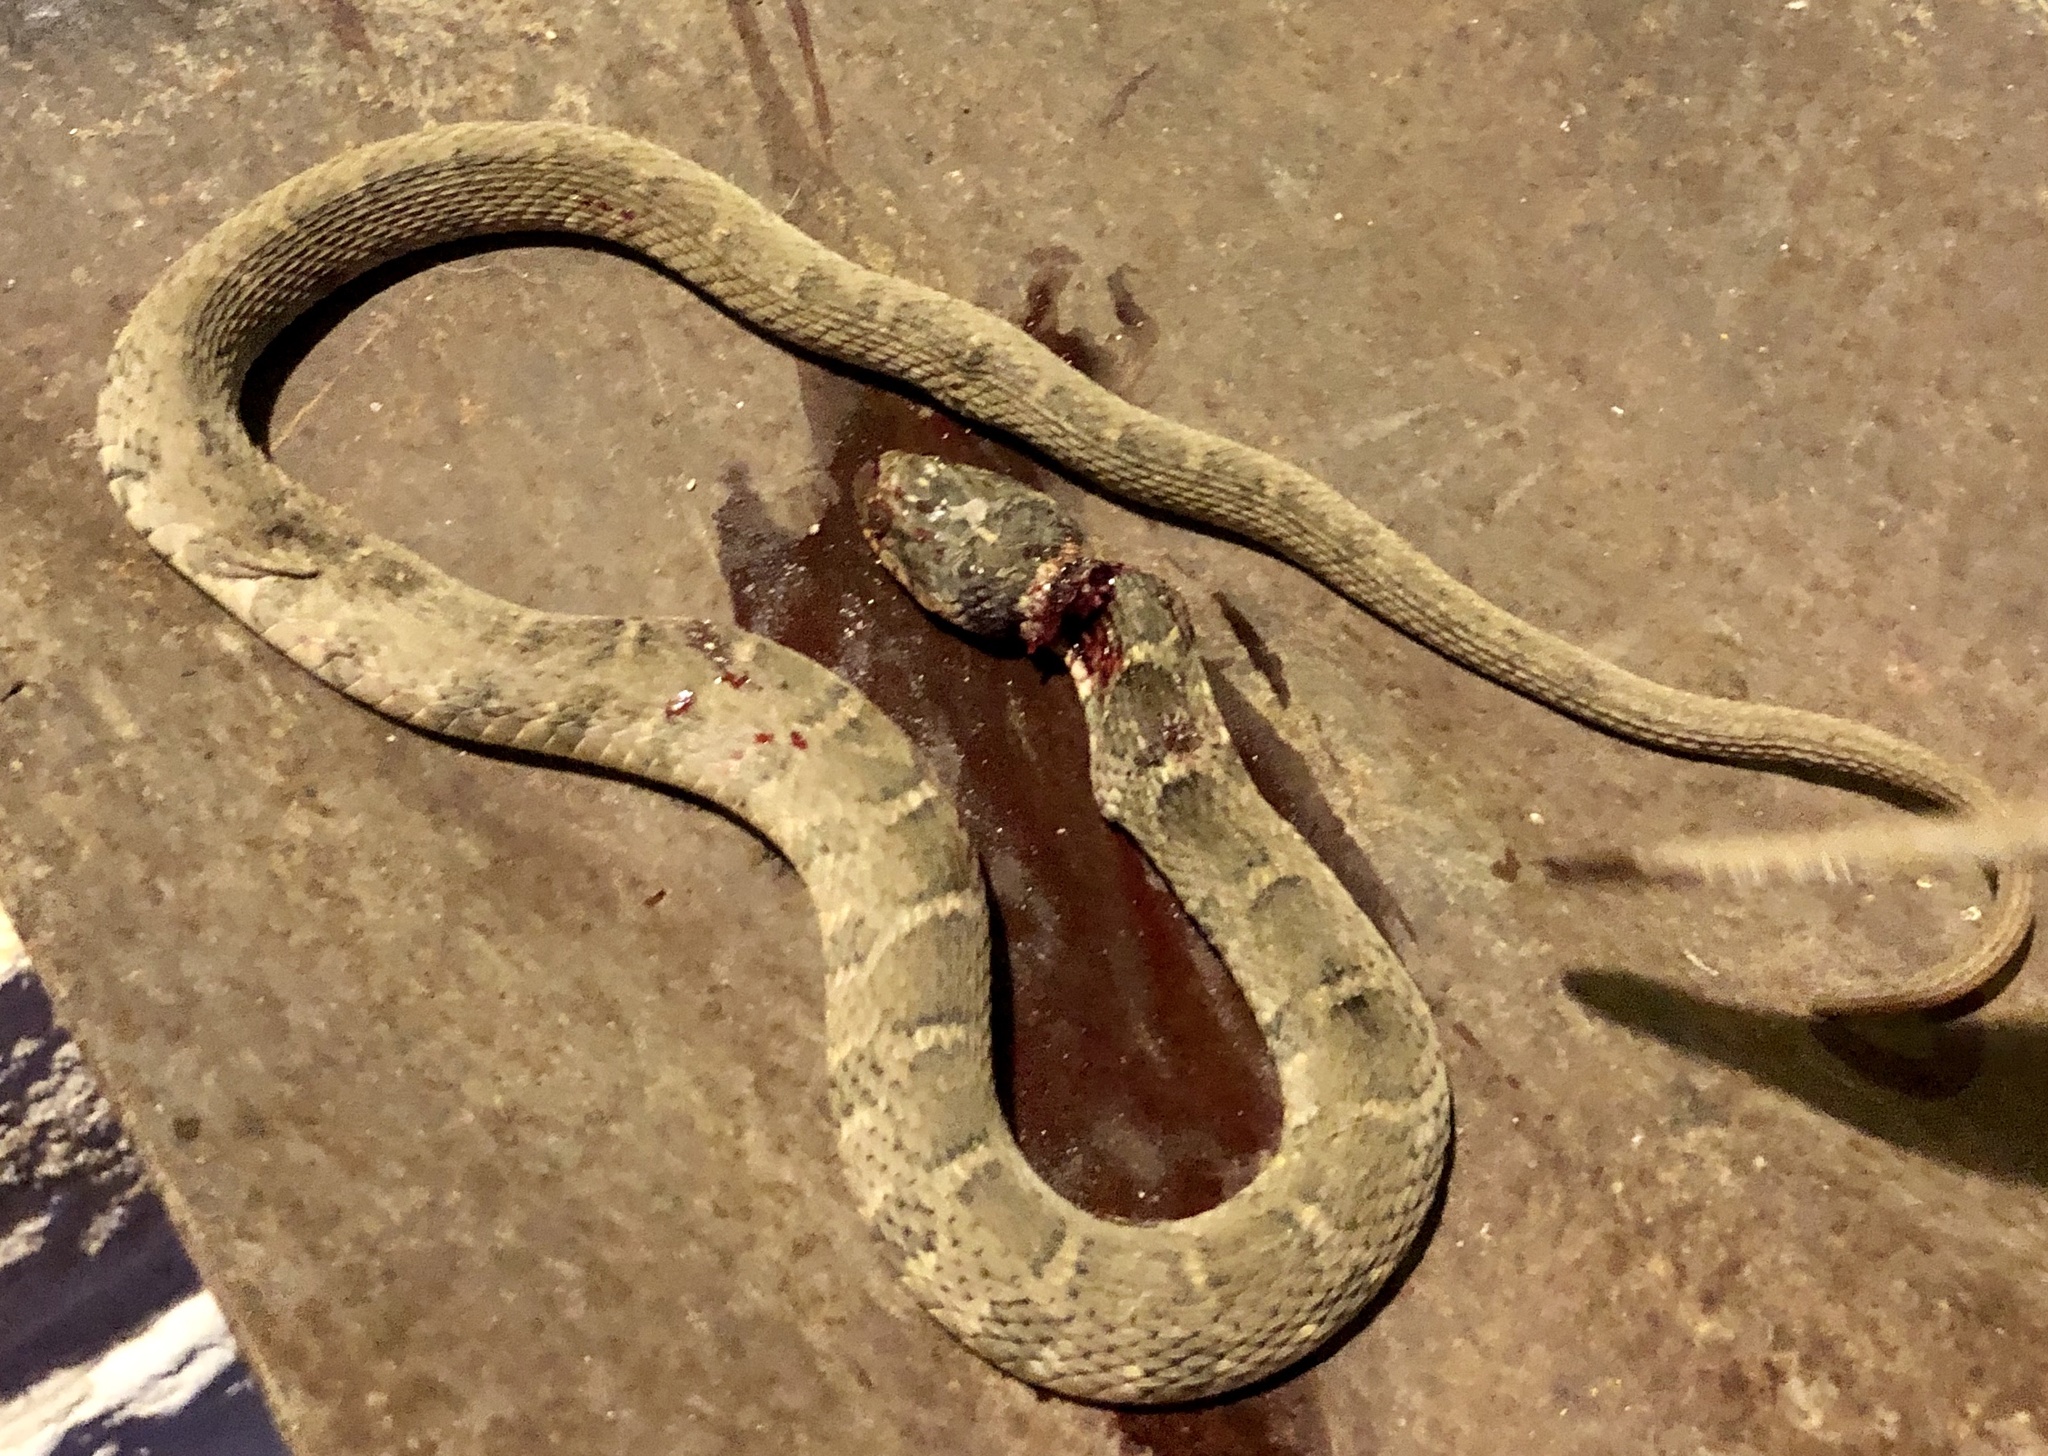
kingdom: Animalia
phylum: Chordata
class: Squamata
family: Colubridae
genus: Nerodia
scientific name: Nerodia erythrogaster
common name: Plainbelly water snake
